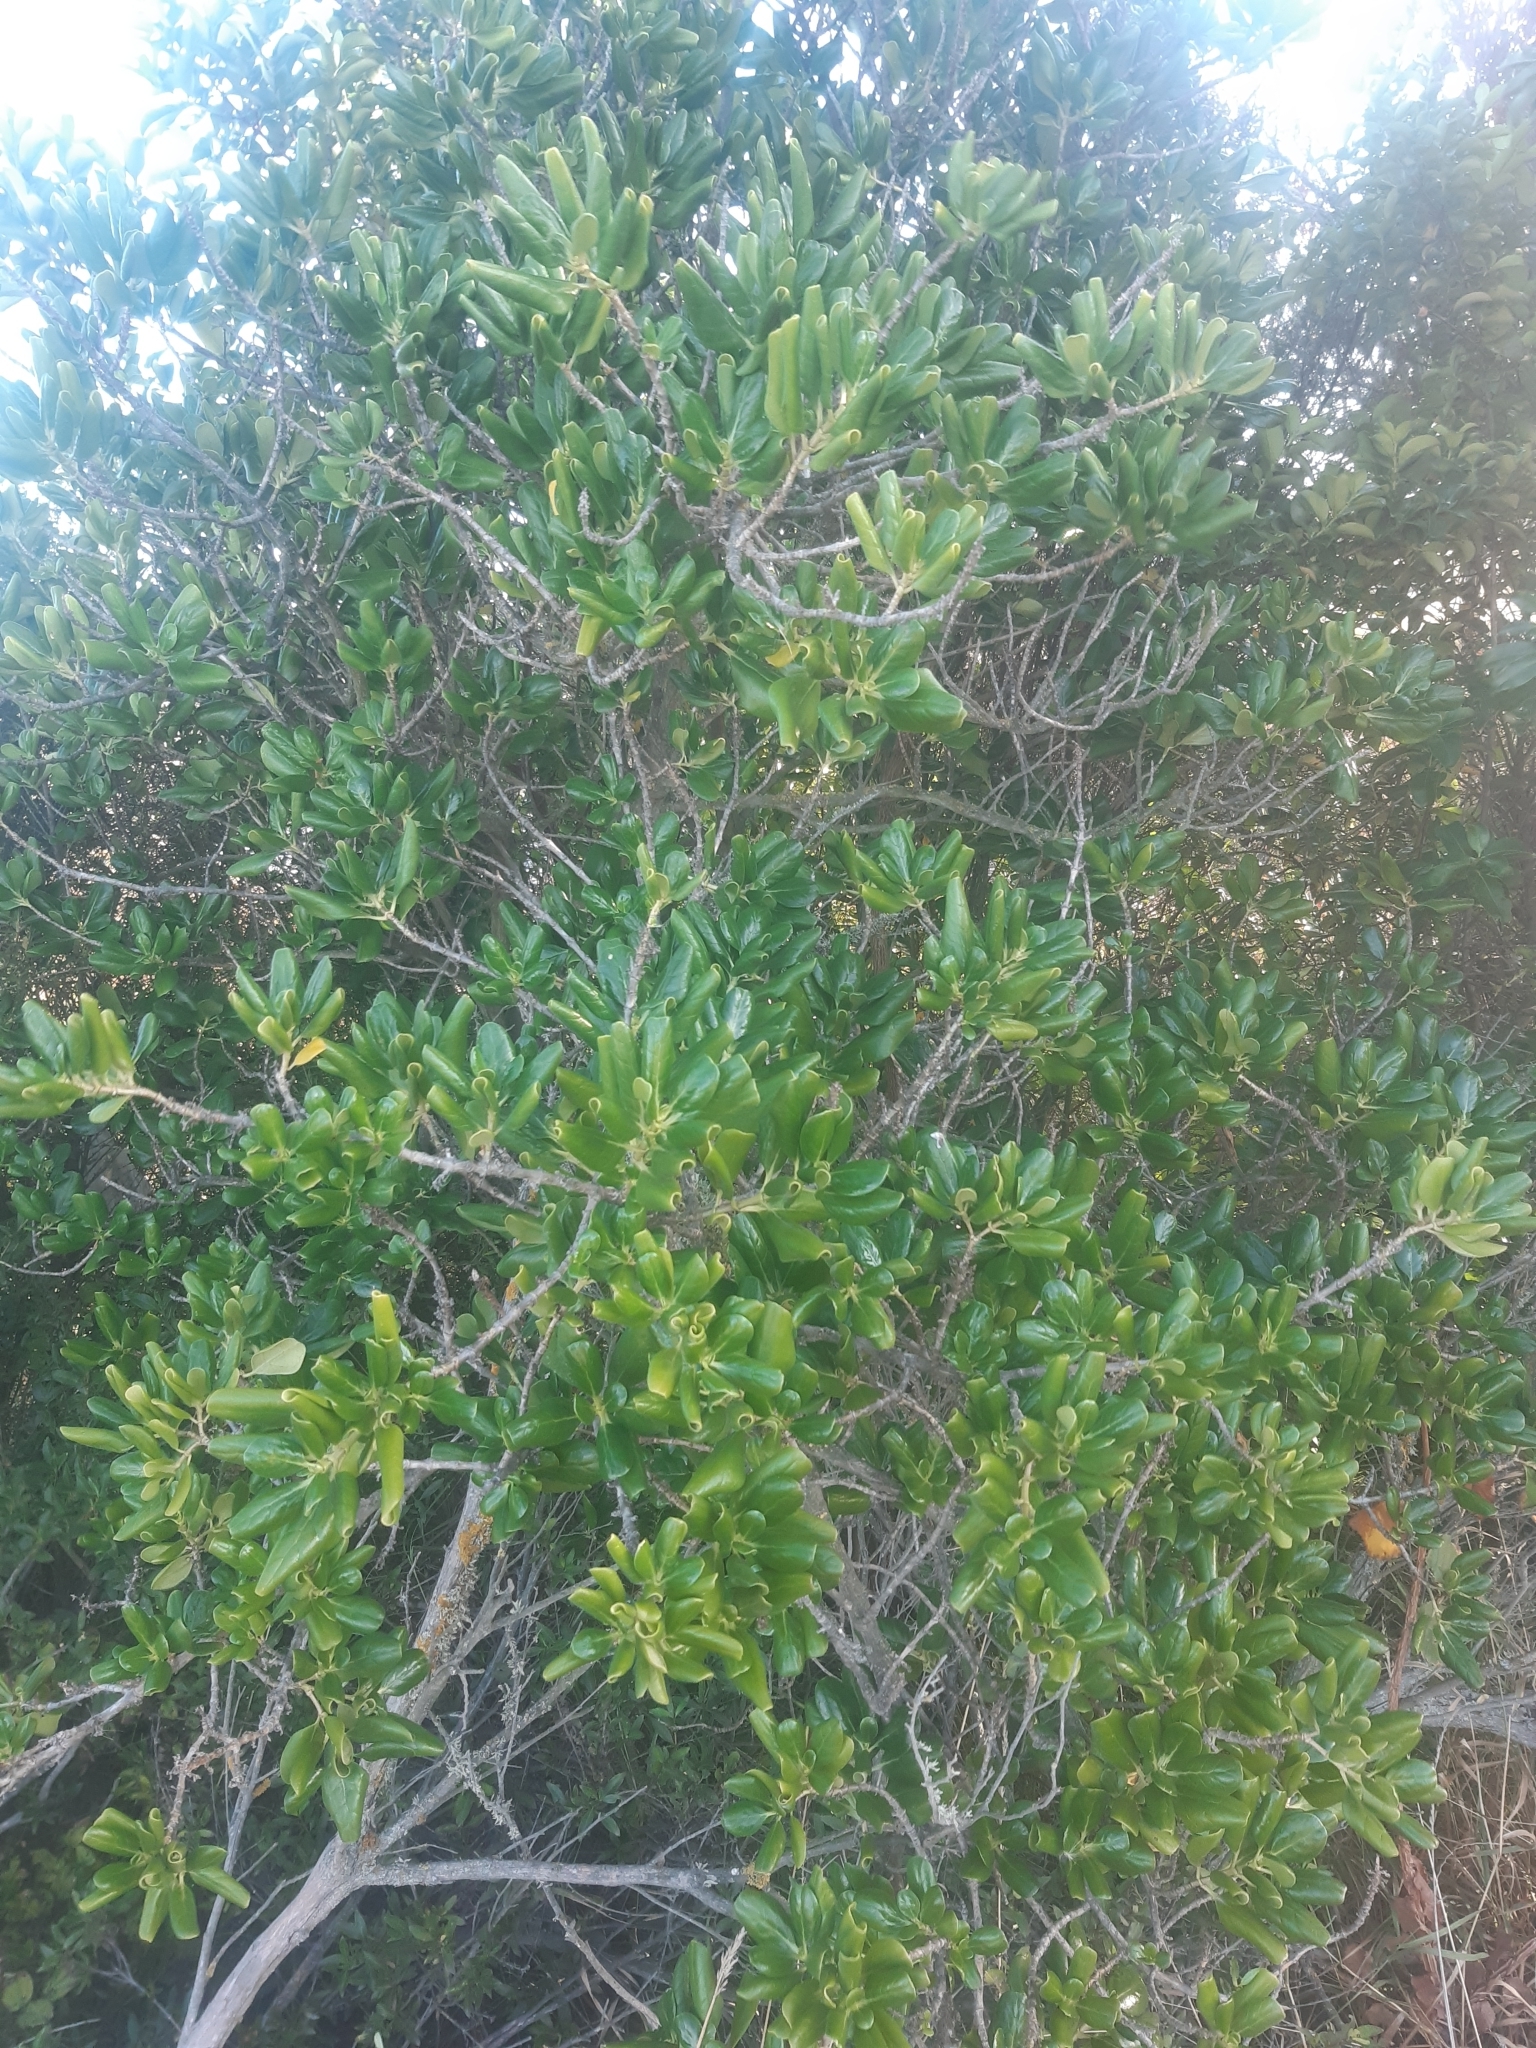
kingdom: Plantae
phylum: Tracheophyta
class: Magnoliopsida
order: Gentianales
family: Rubiaceae
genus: Coprosma
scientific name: Coprosma repens
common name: Tree bedstraw
